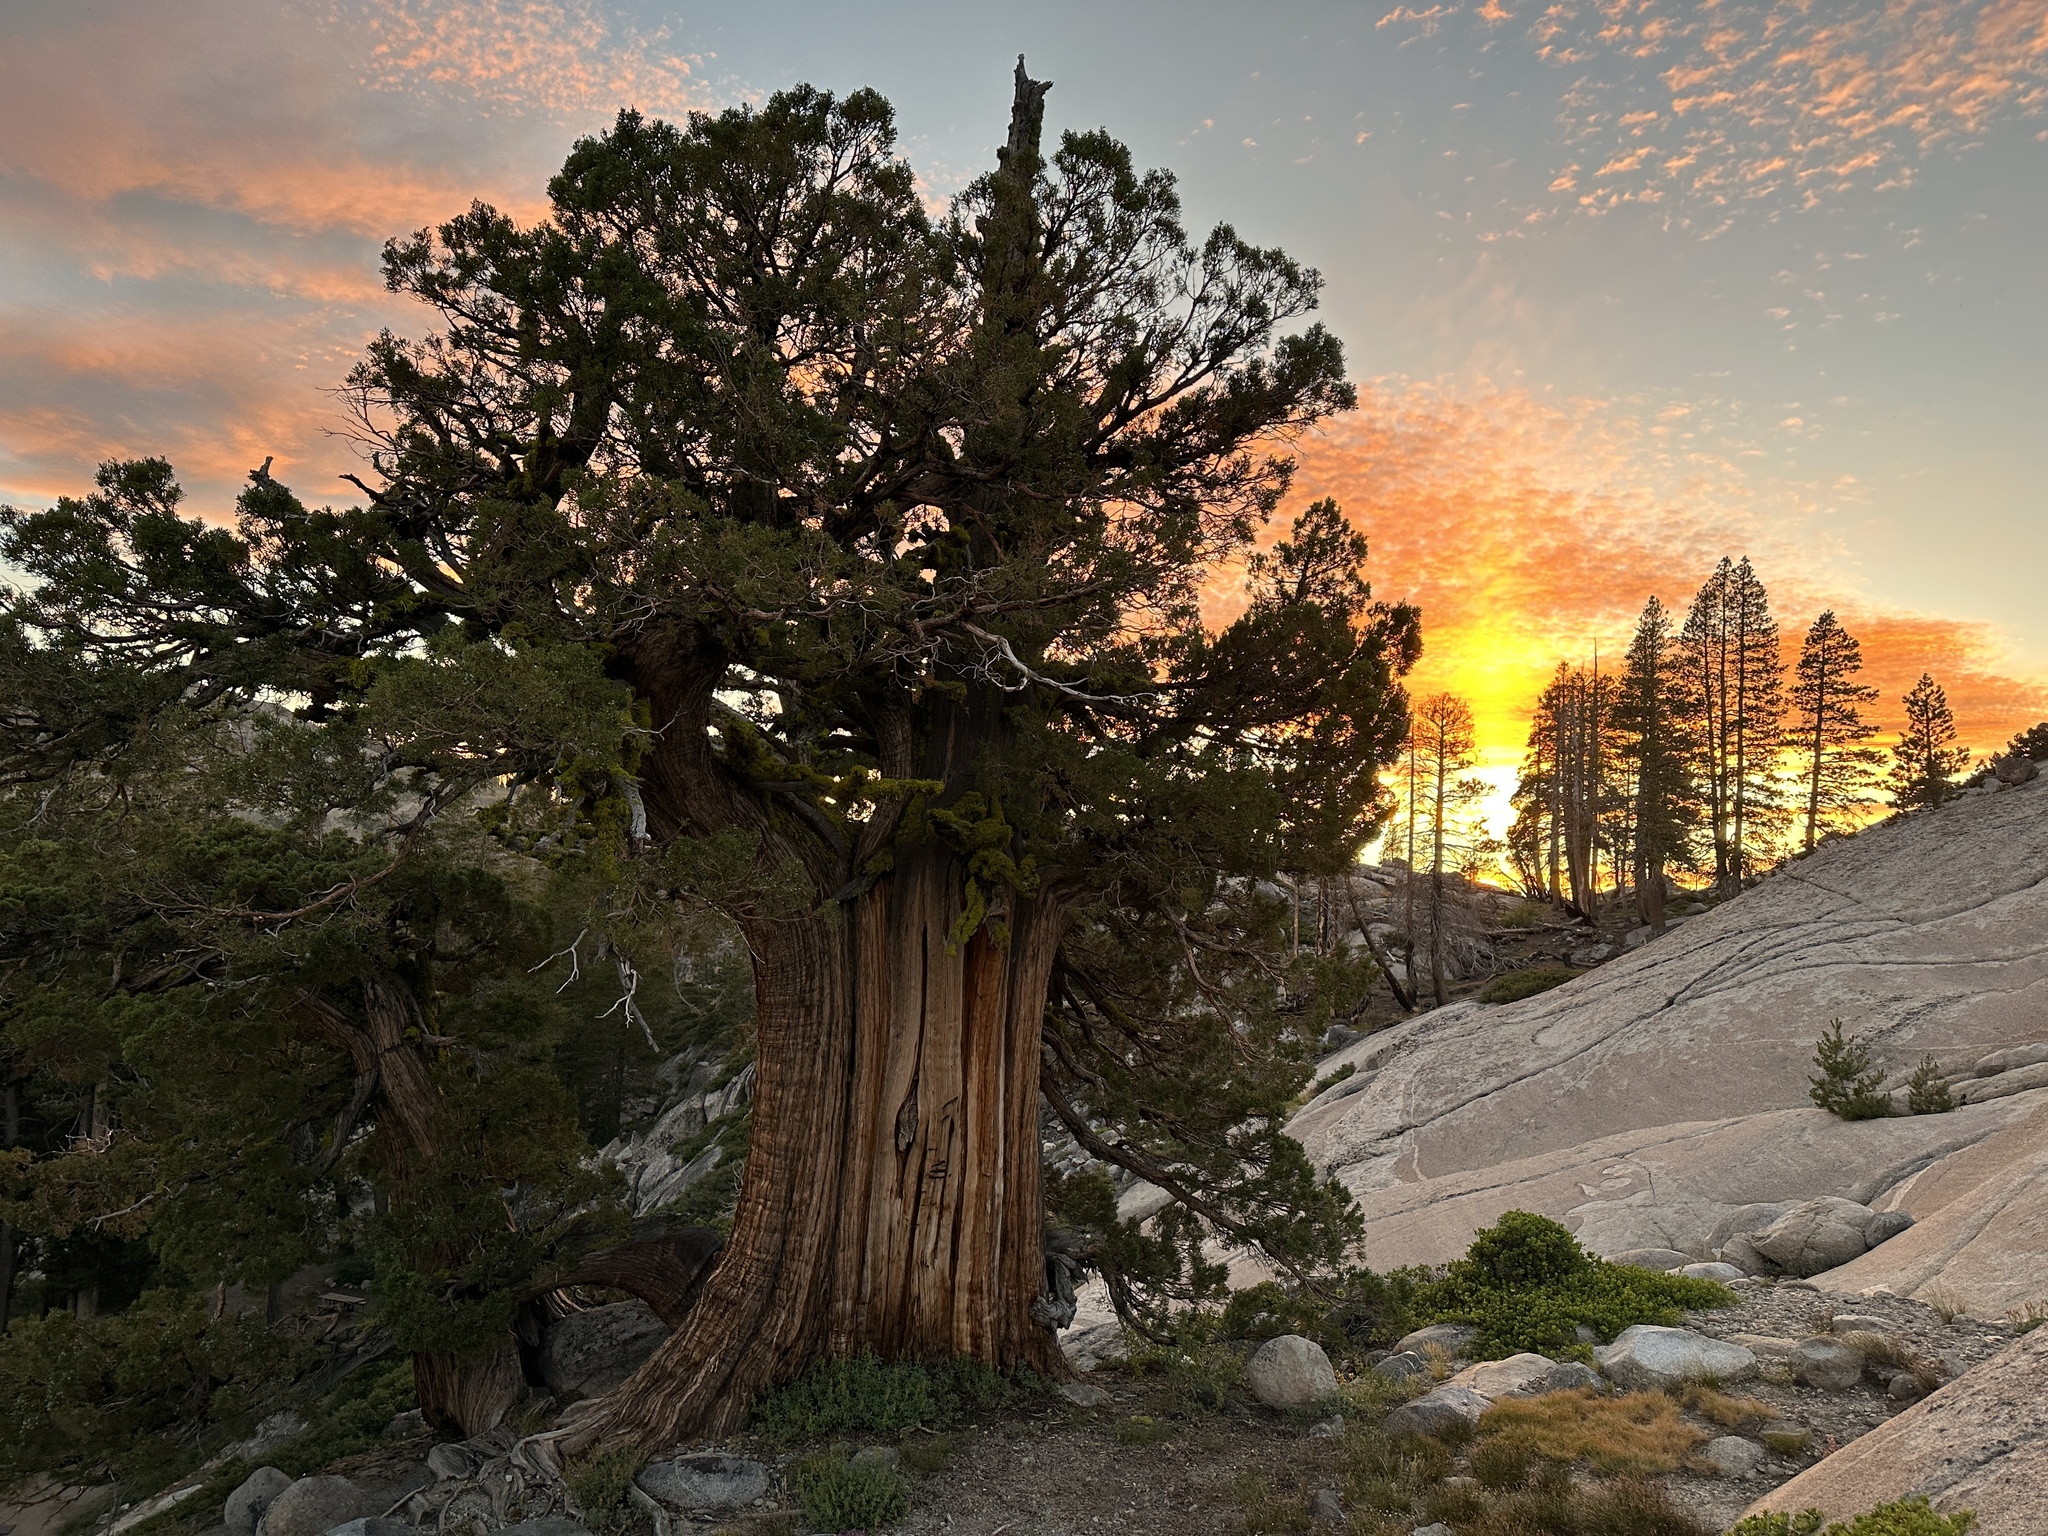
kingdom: Plantae
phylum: Tracheophyta
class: Pinopsida
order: Pinales
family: Cupressaceae
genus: Juniperus
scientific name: Juniperus occidentalis
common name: Western juniper
